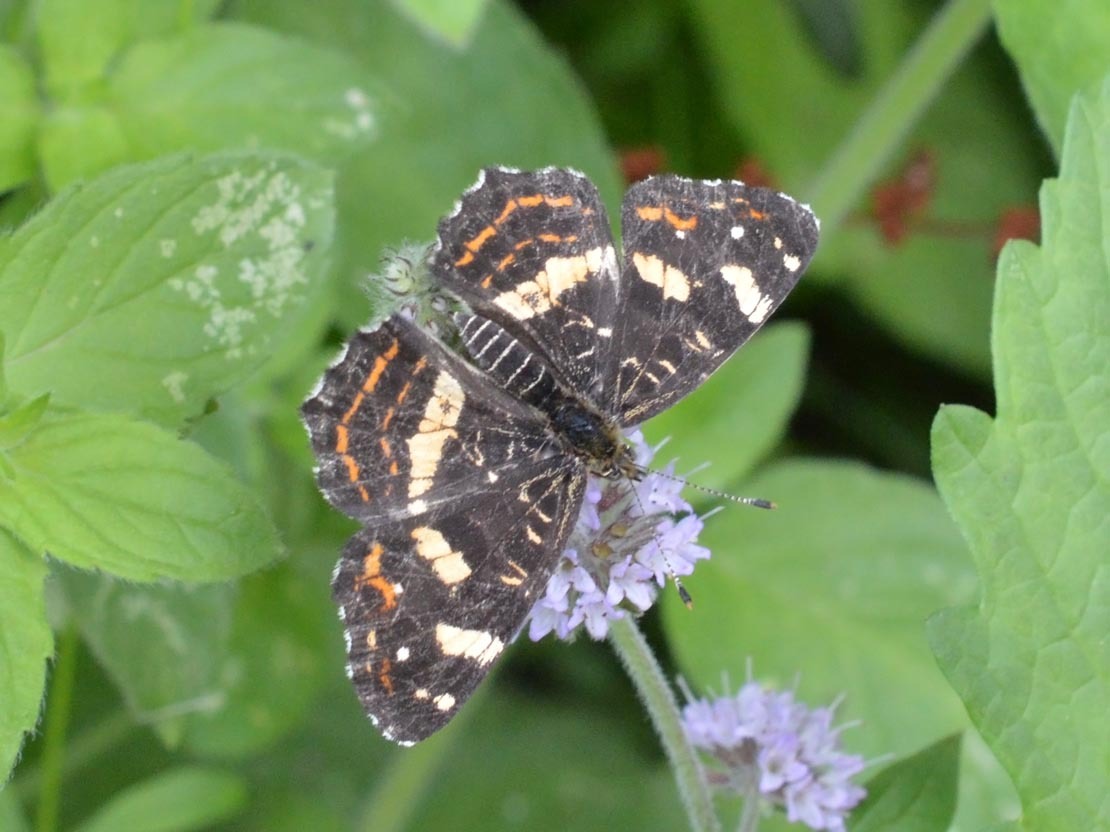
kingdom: Animalia
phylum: Arthropoda
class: Insecta
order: Lepidoptera
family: Nymphalidae
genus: Araschnia
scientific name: Araschnia levana
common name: Map butterfly
